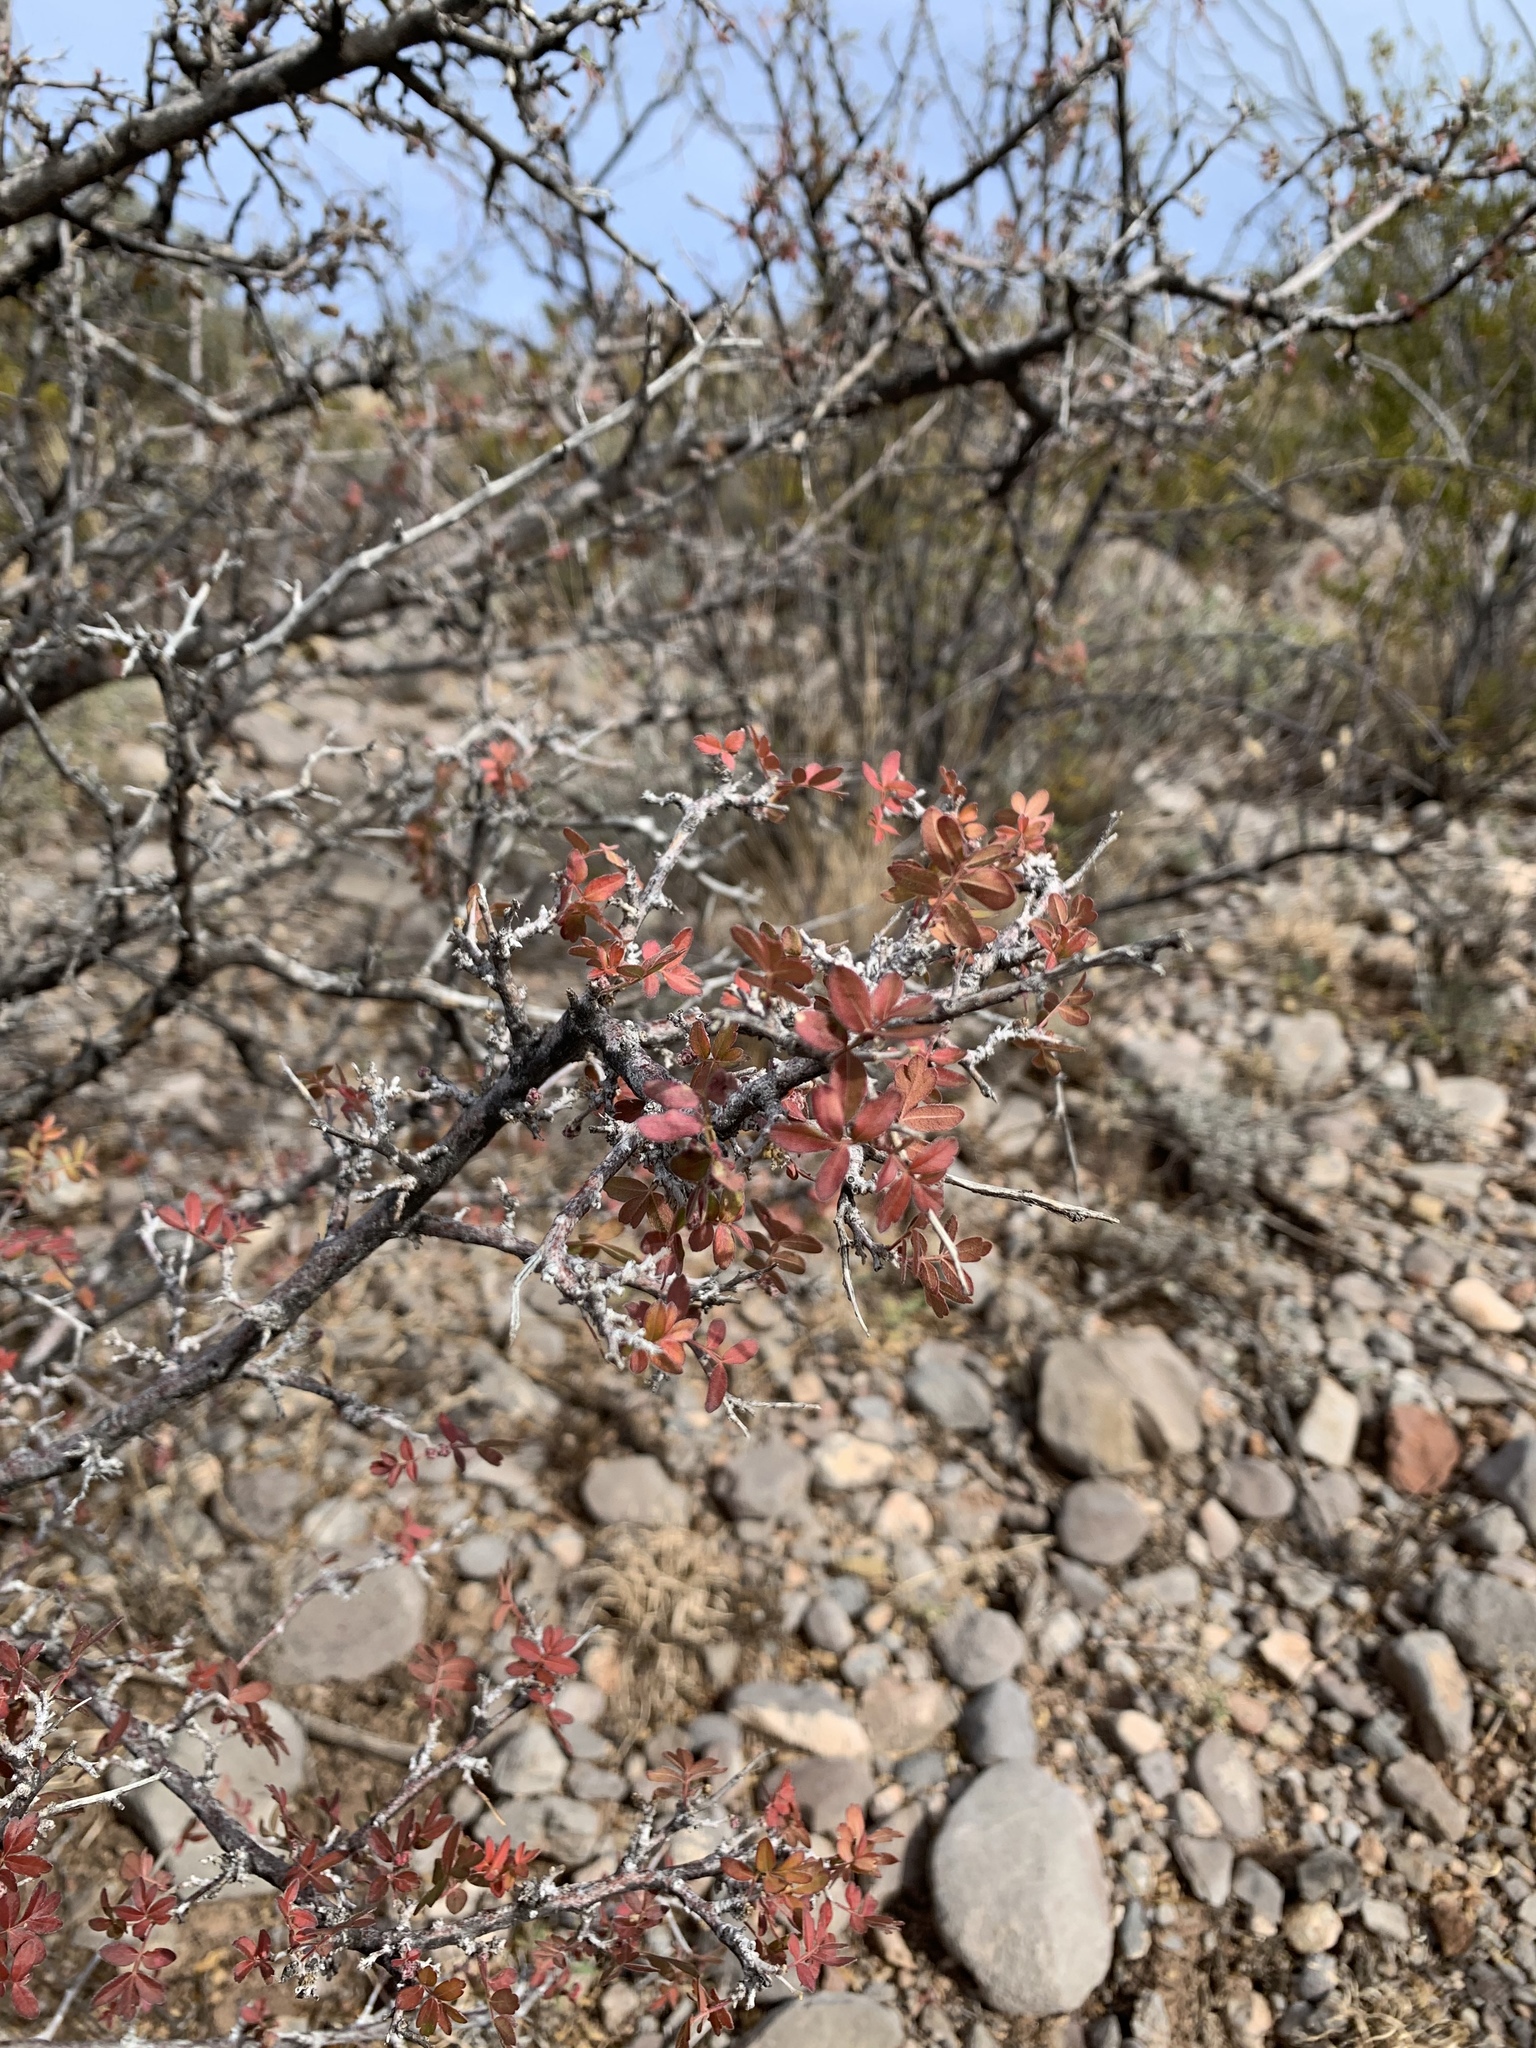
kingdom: Plantae
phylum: Tracheophyta
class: Magnoliopsida
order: Sapindales
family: Anacardiaceae
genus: Rhus
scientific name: Rhus microphylla
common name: Desert sumac
